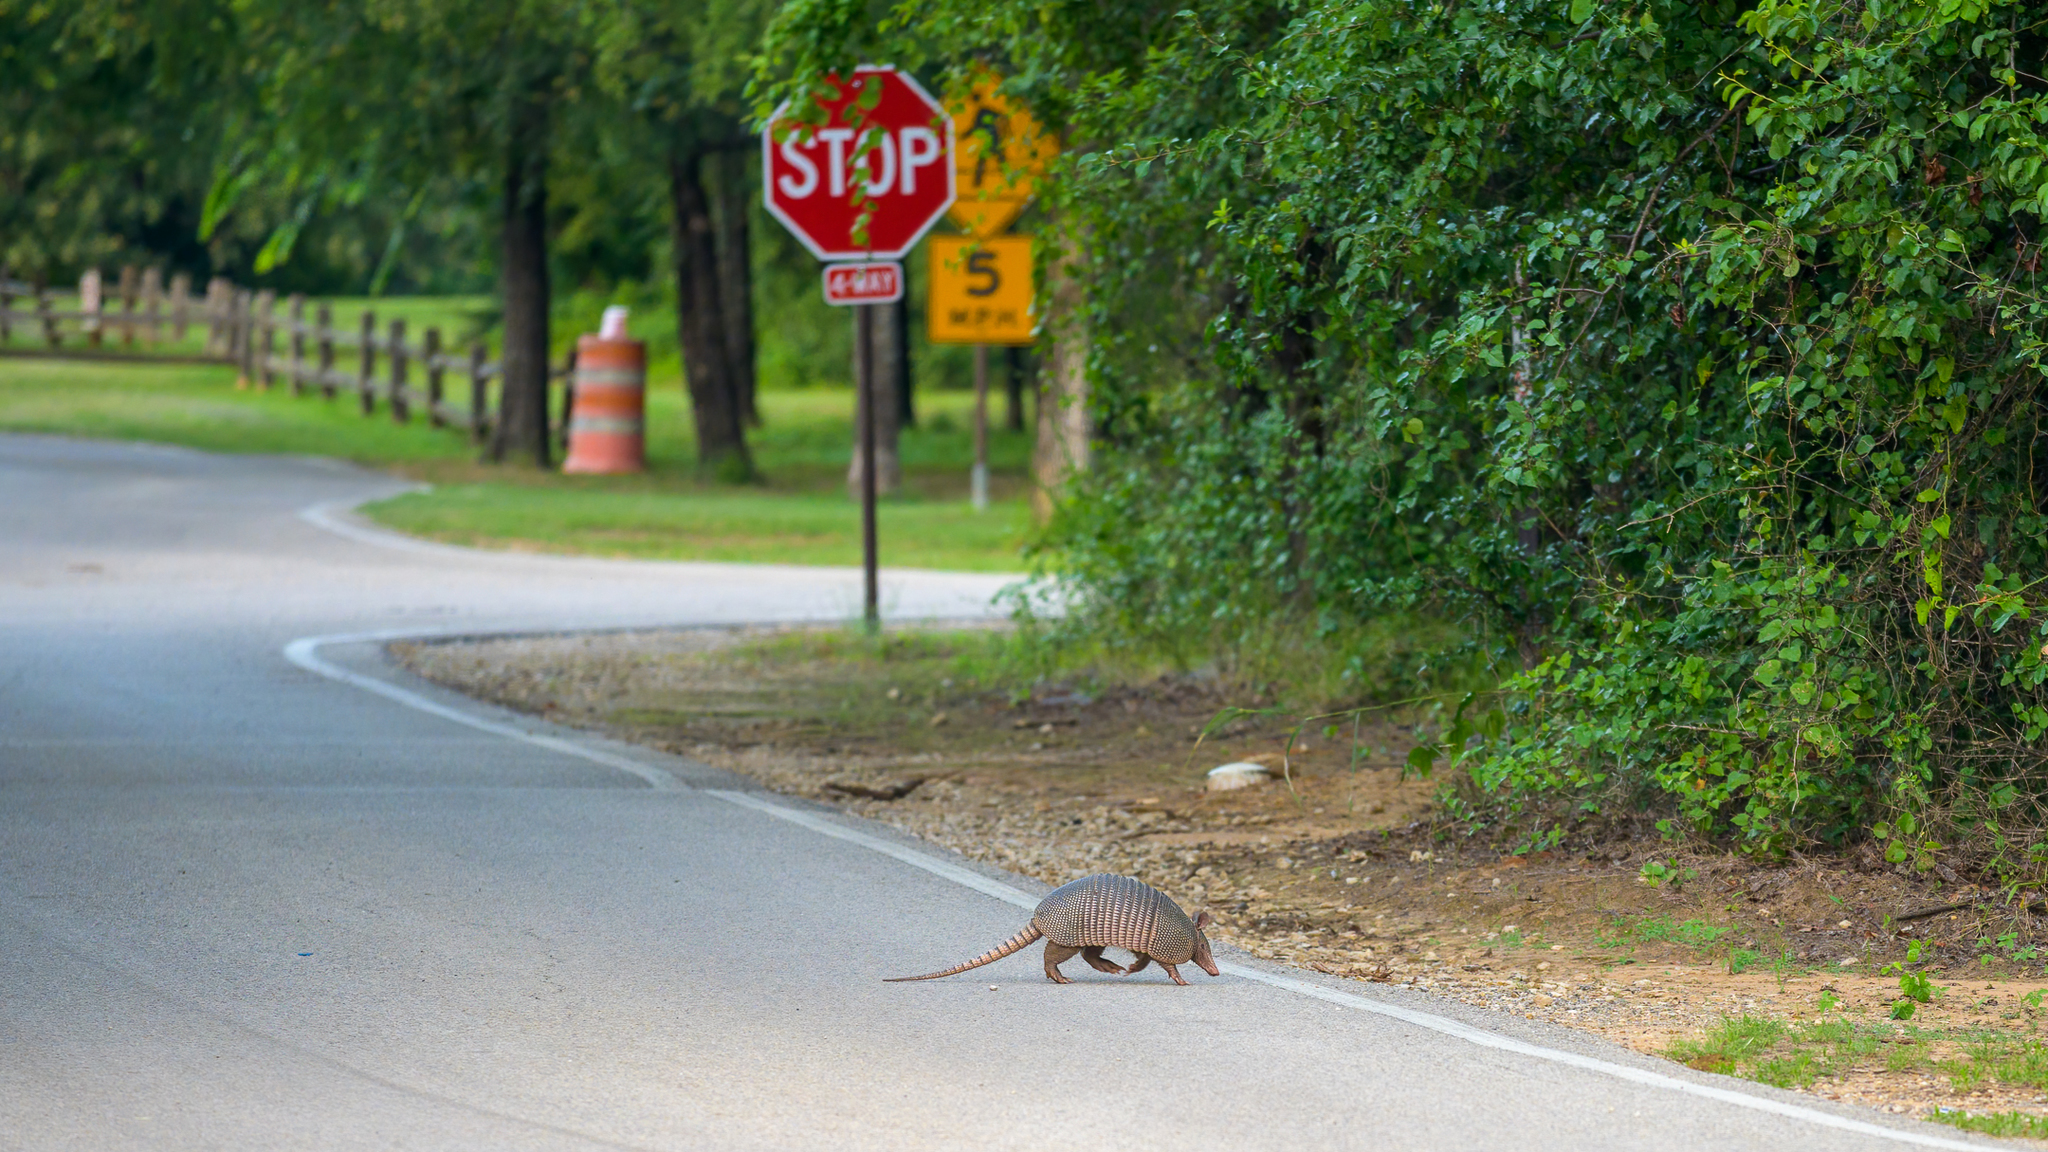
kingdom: Animalia
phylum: Chordata
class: Mammalia
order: Cingulata
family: Dasypodidae
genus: Dasypus
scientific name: Dasypus novemcinctus
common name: Nine-banded armadillo
